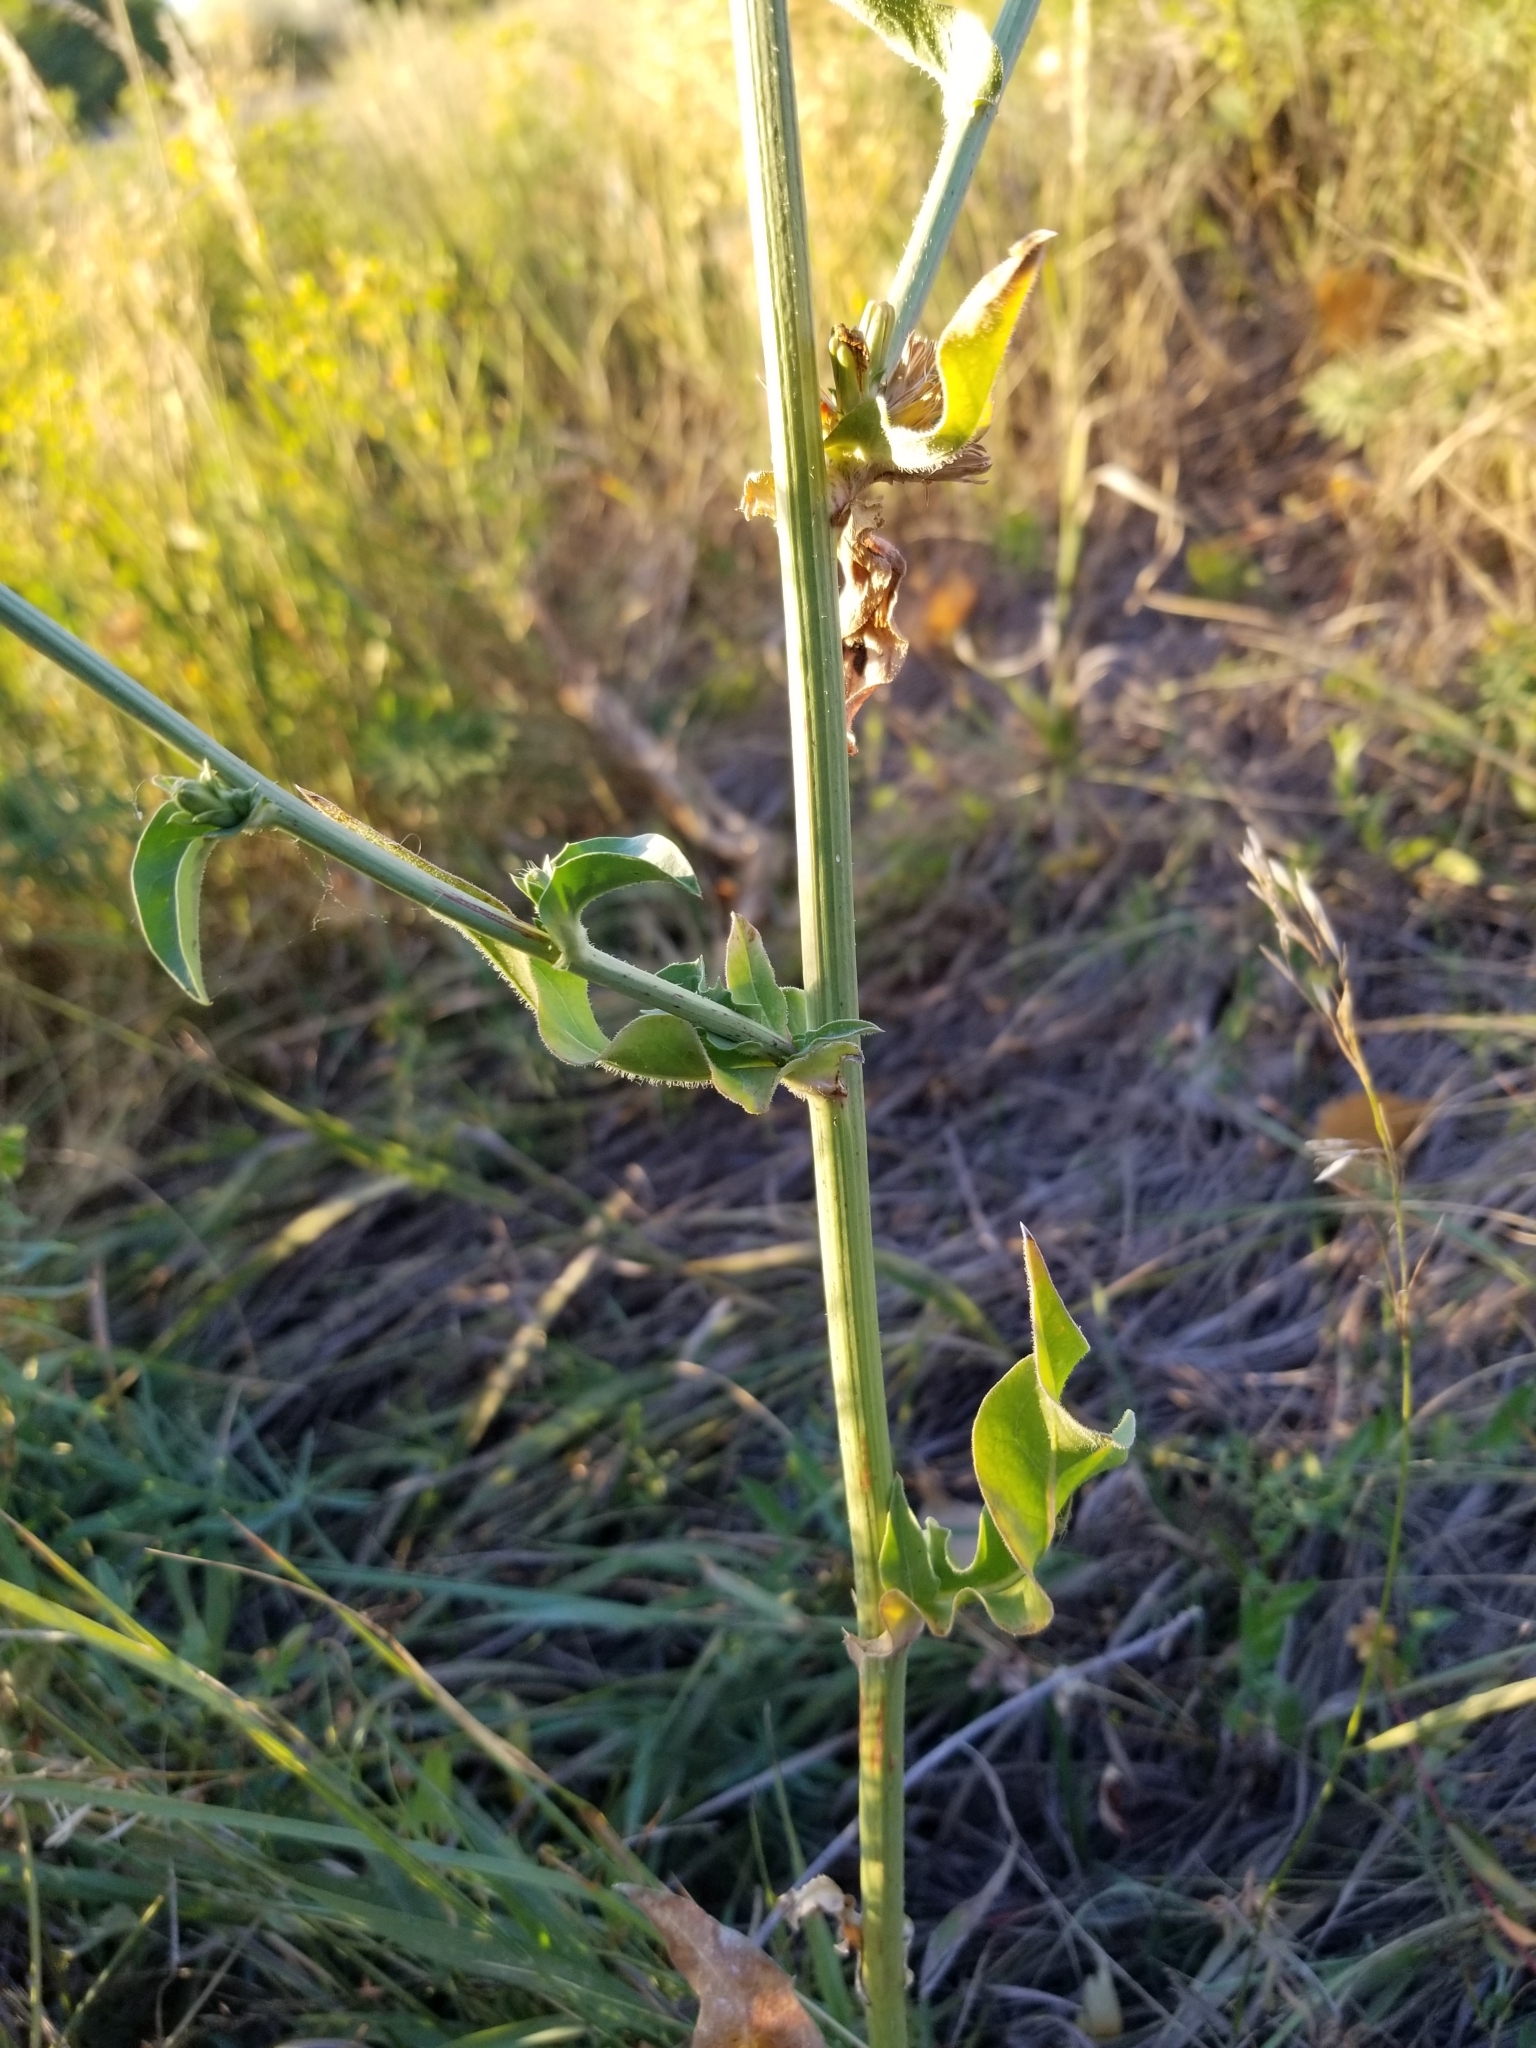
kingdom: Plantae
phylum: Tracheophyta
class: Magnoliopsida
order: Asterales
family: Asteraceae
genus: Cichorium
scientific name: Cichorium intybus
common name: Chicory
